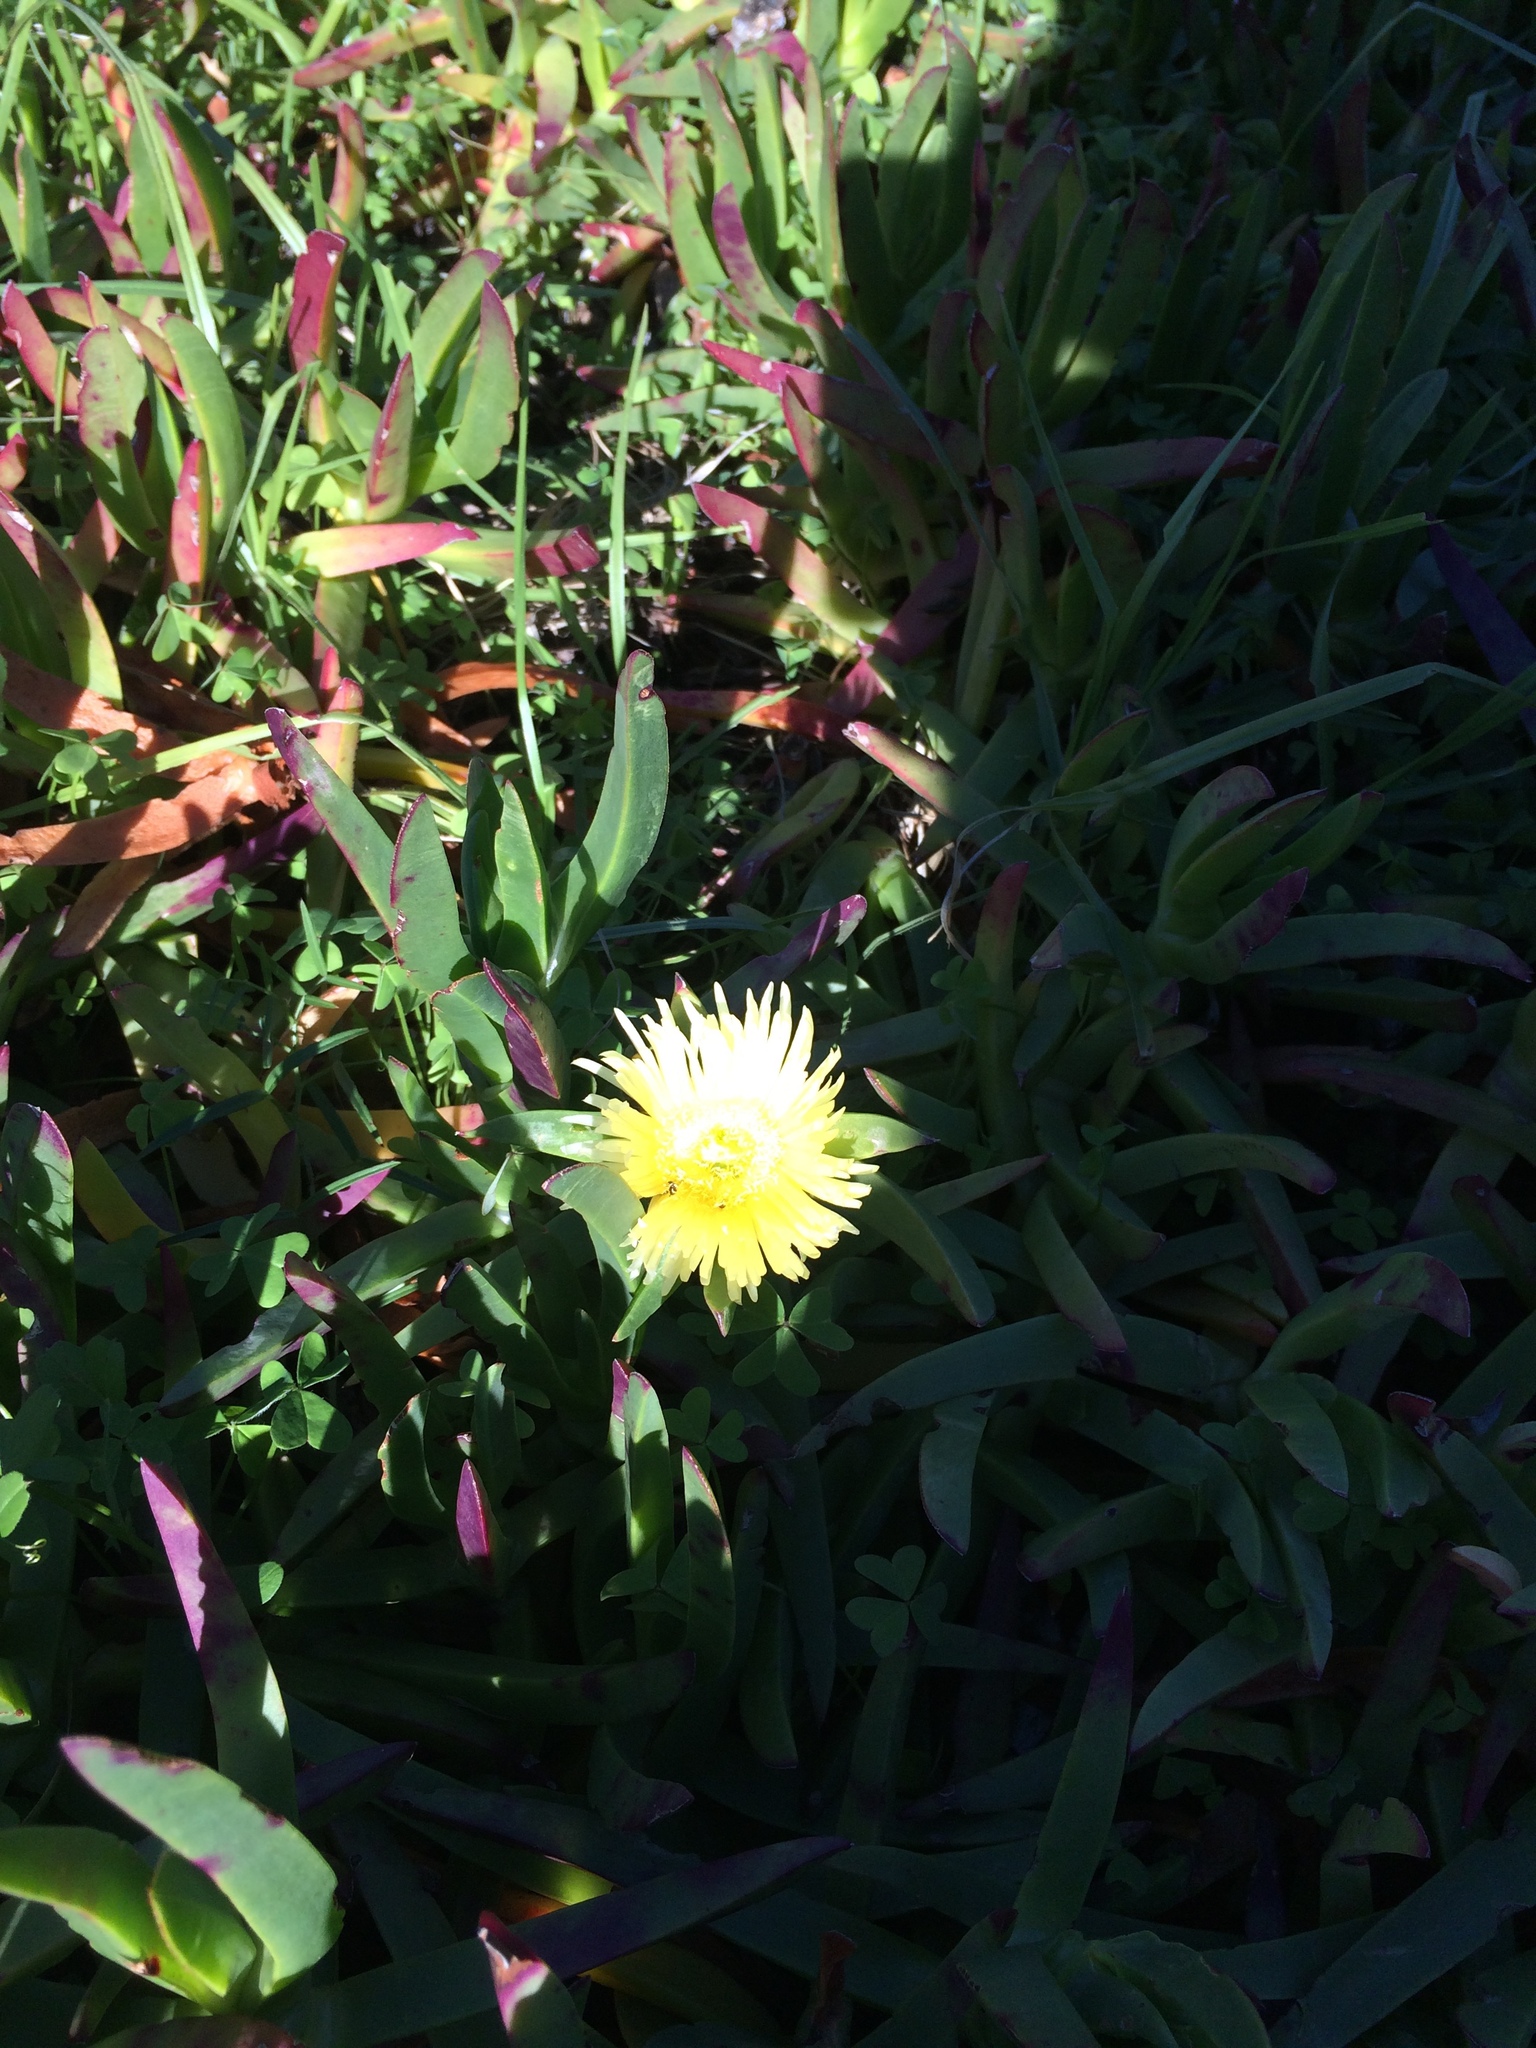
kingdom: Plantae
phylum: Tracheophyta
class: Magnoliopsida
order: Caryophyllales
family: Aizoaceae
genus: Carpobrotus
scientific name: Carpobrotus edulis
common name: Hottentot-fig
